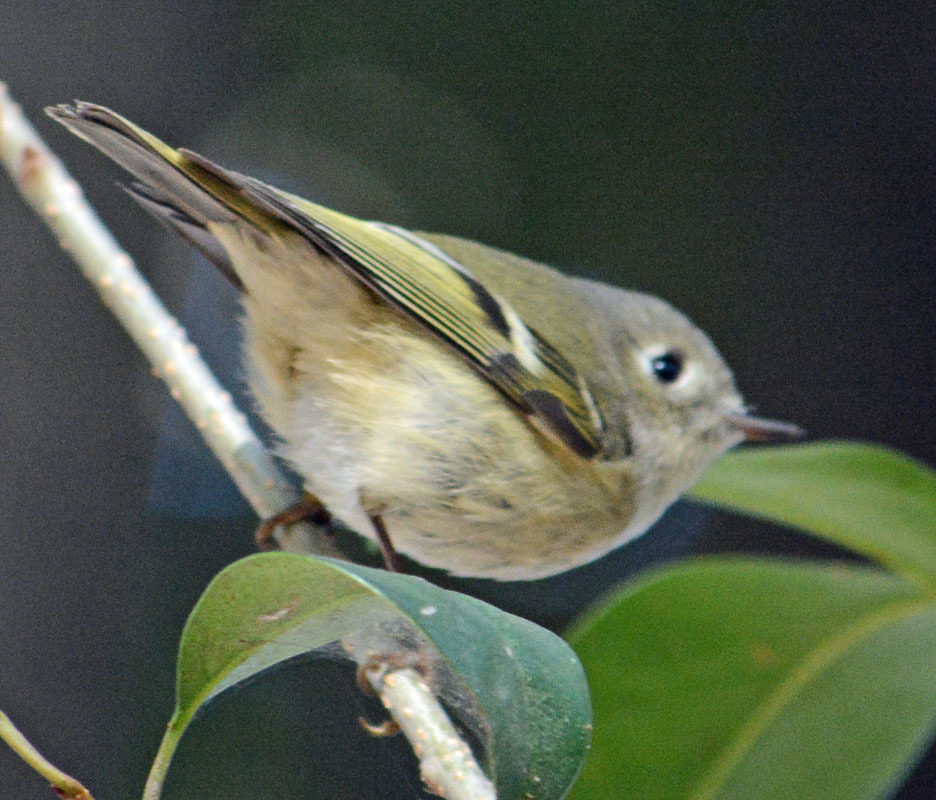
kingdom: Animalia
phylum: Chordata
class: Aves
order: Passeriformes
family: Regulidae
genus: Regulus
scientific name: Regulus calendula
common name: Ruby-crowned kinglet
